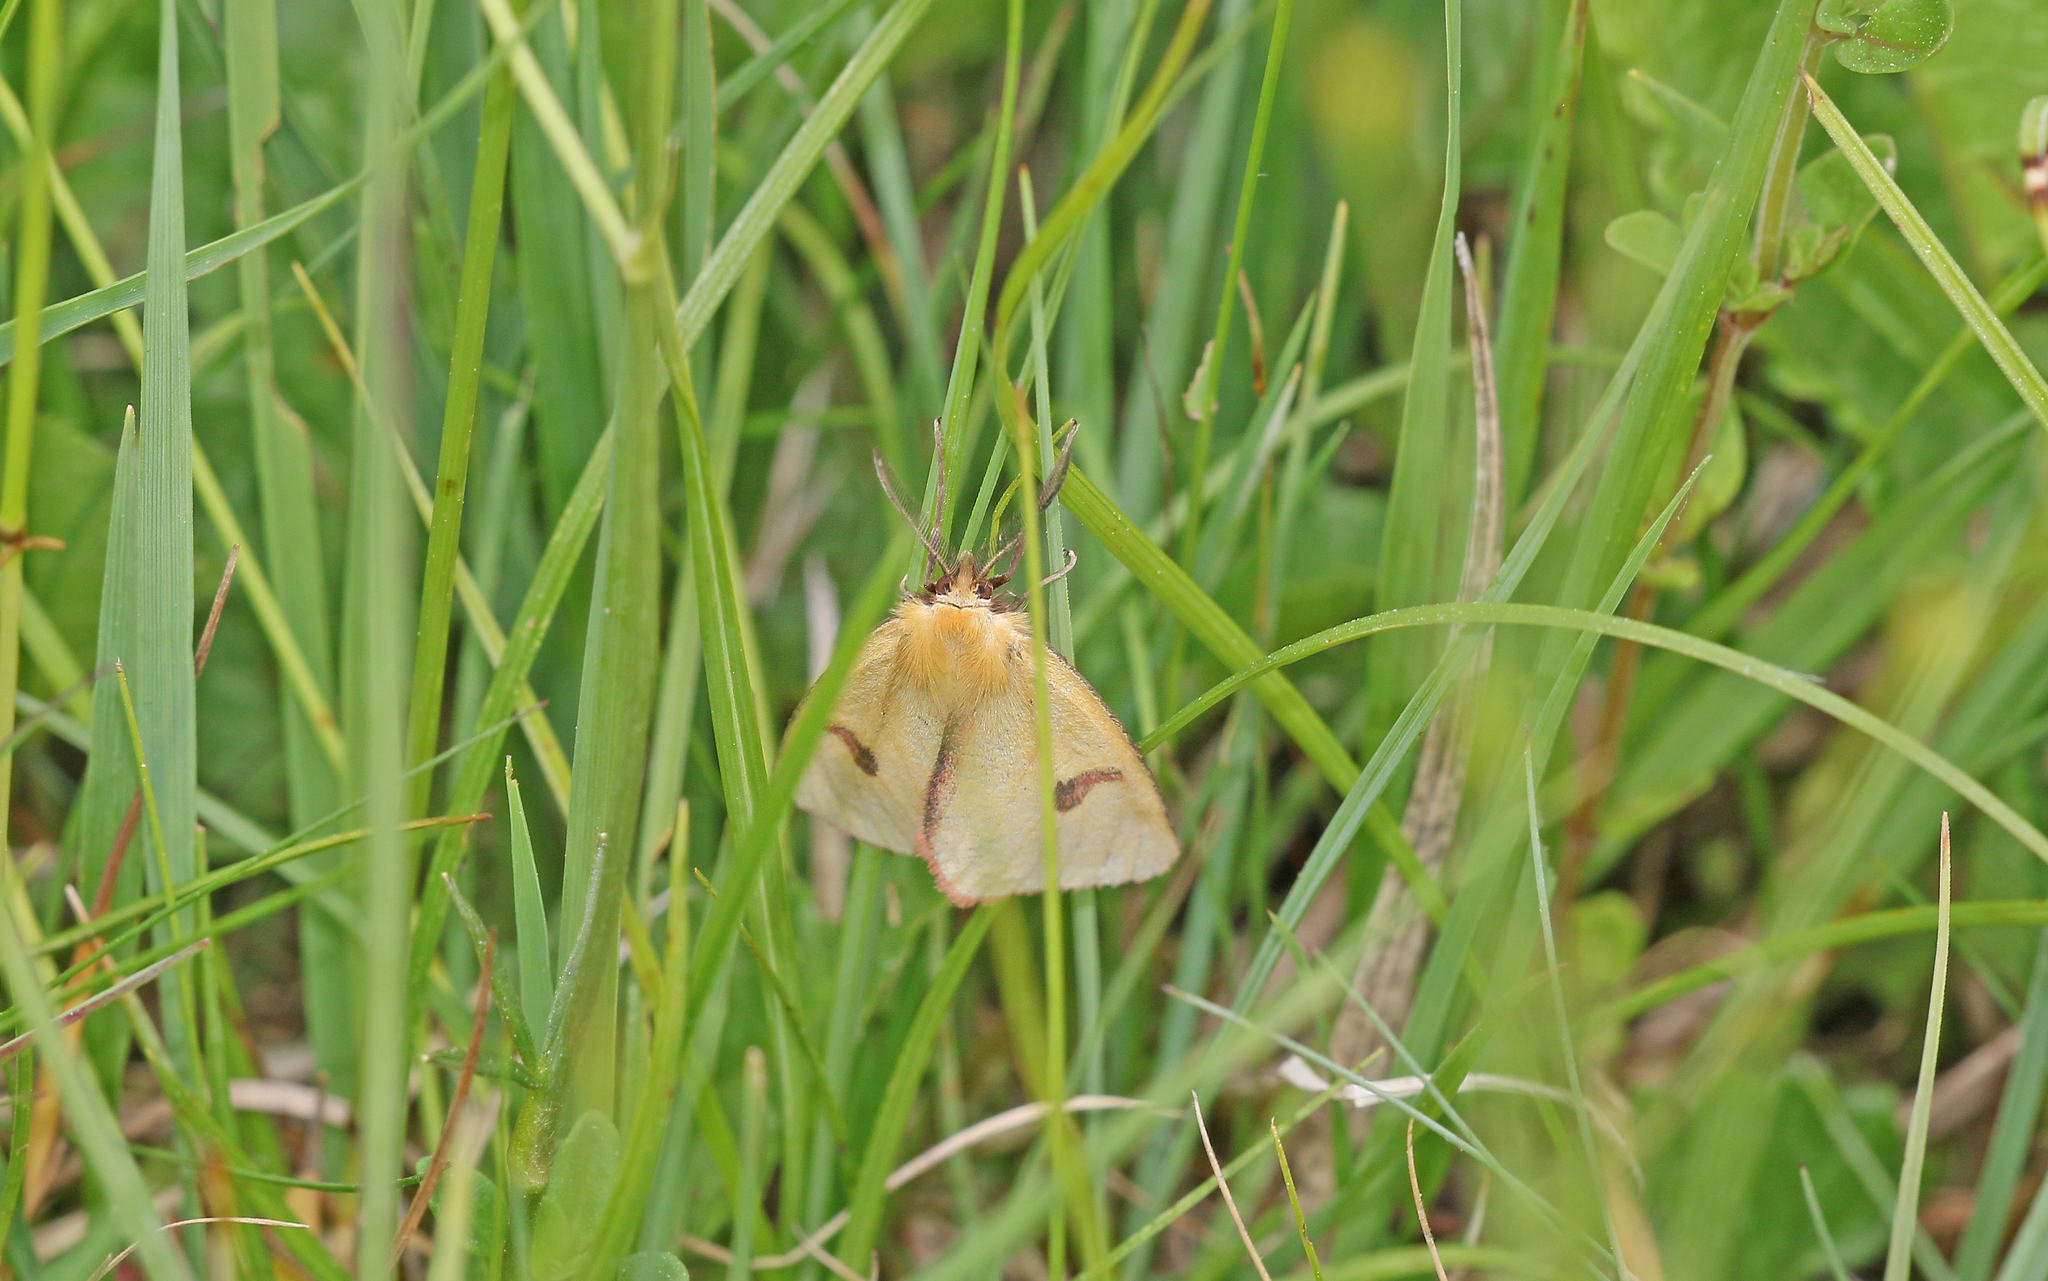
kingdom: Animalia
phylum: Arthropoda
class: Insecta
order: Lepidoptera
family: Erebidae
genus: Diacrisia
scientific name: Diacrisia sannio
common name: Clouded buff
